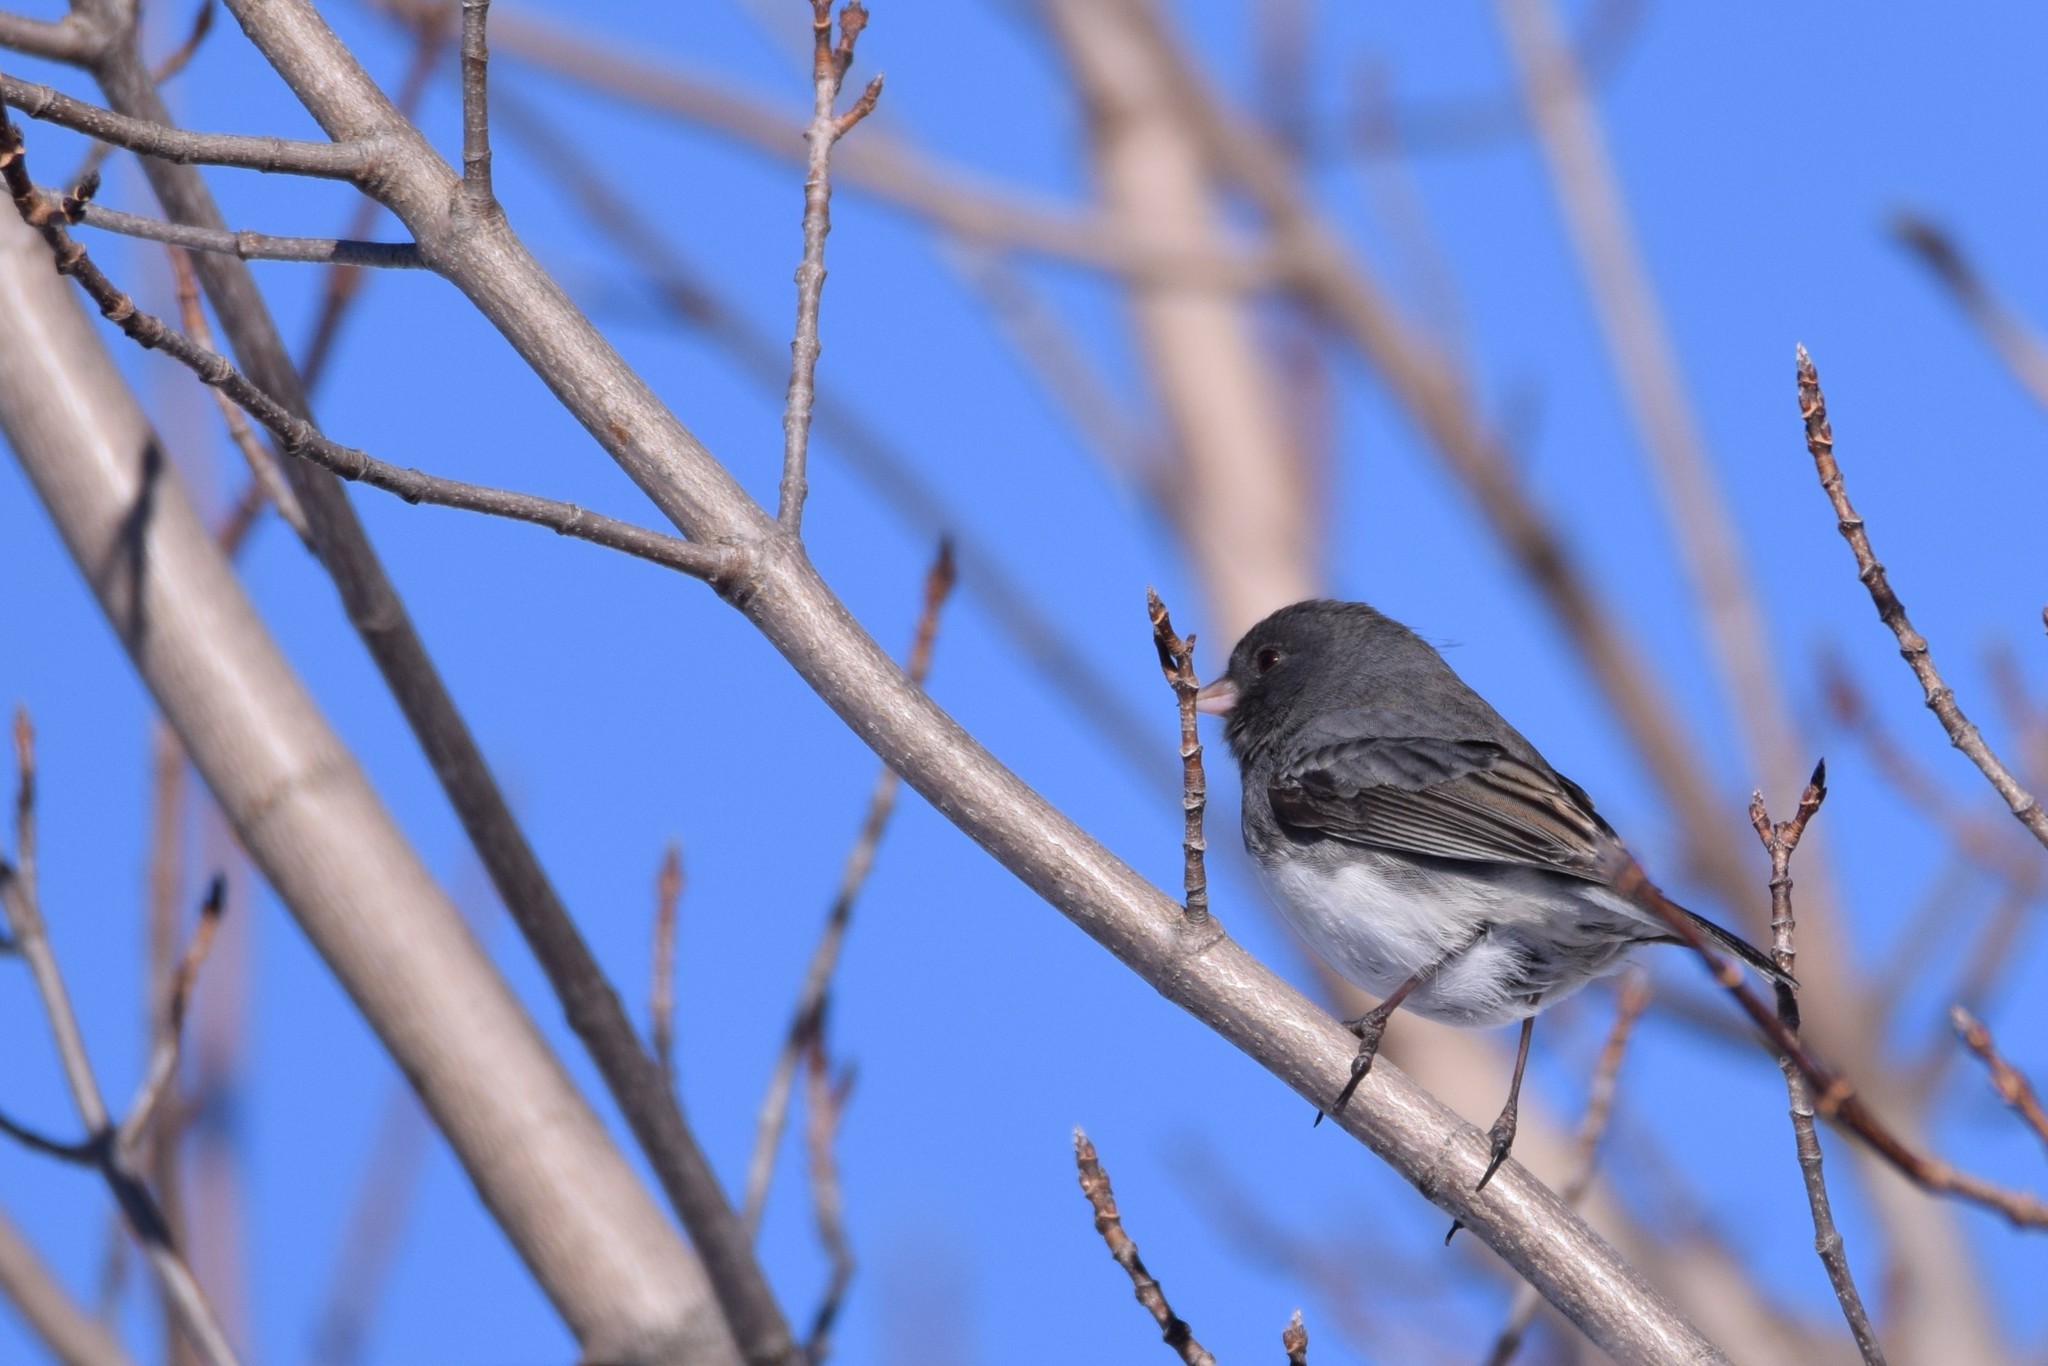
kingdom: Animalia
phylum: Chordata
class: Aves
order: Passeriformes
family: Passerellidae
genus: Junco
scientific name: Junco hyemalis
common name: Dark-eyed junco
